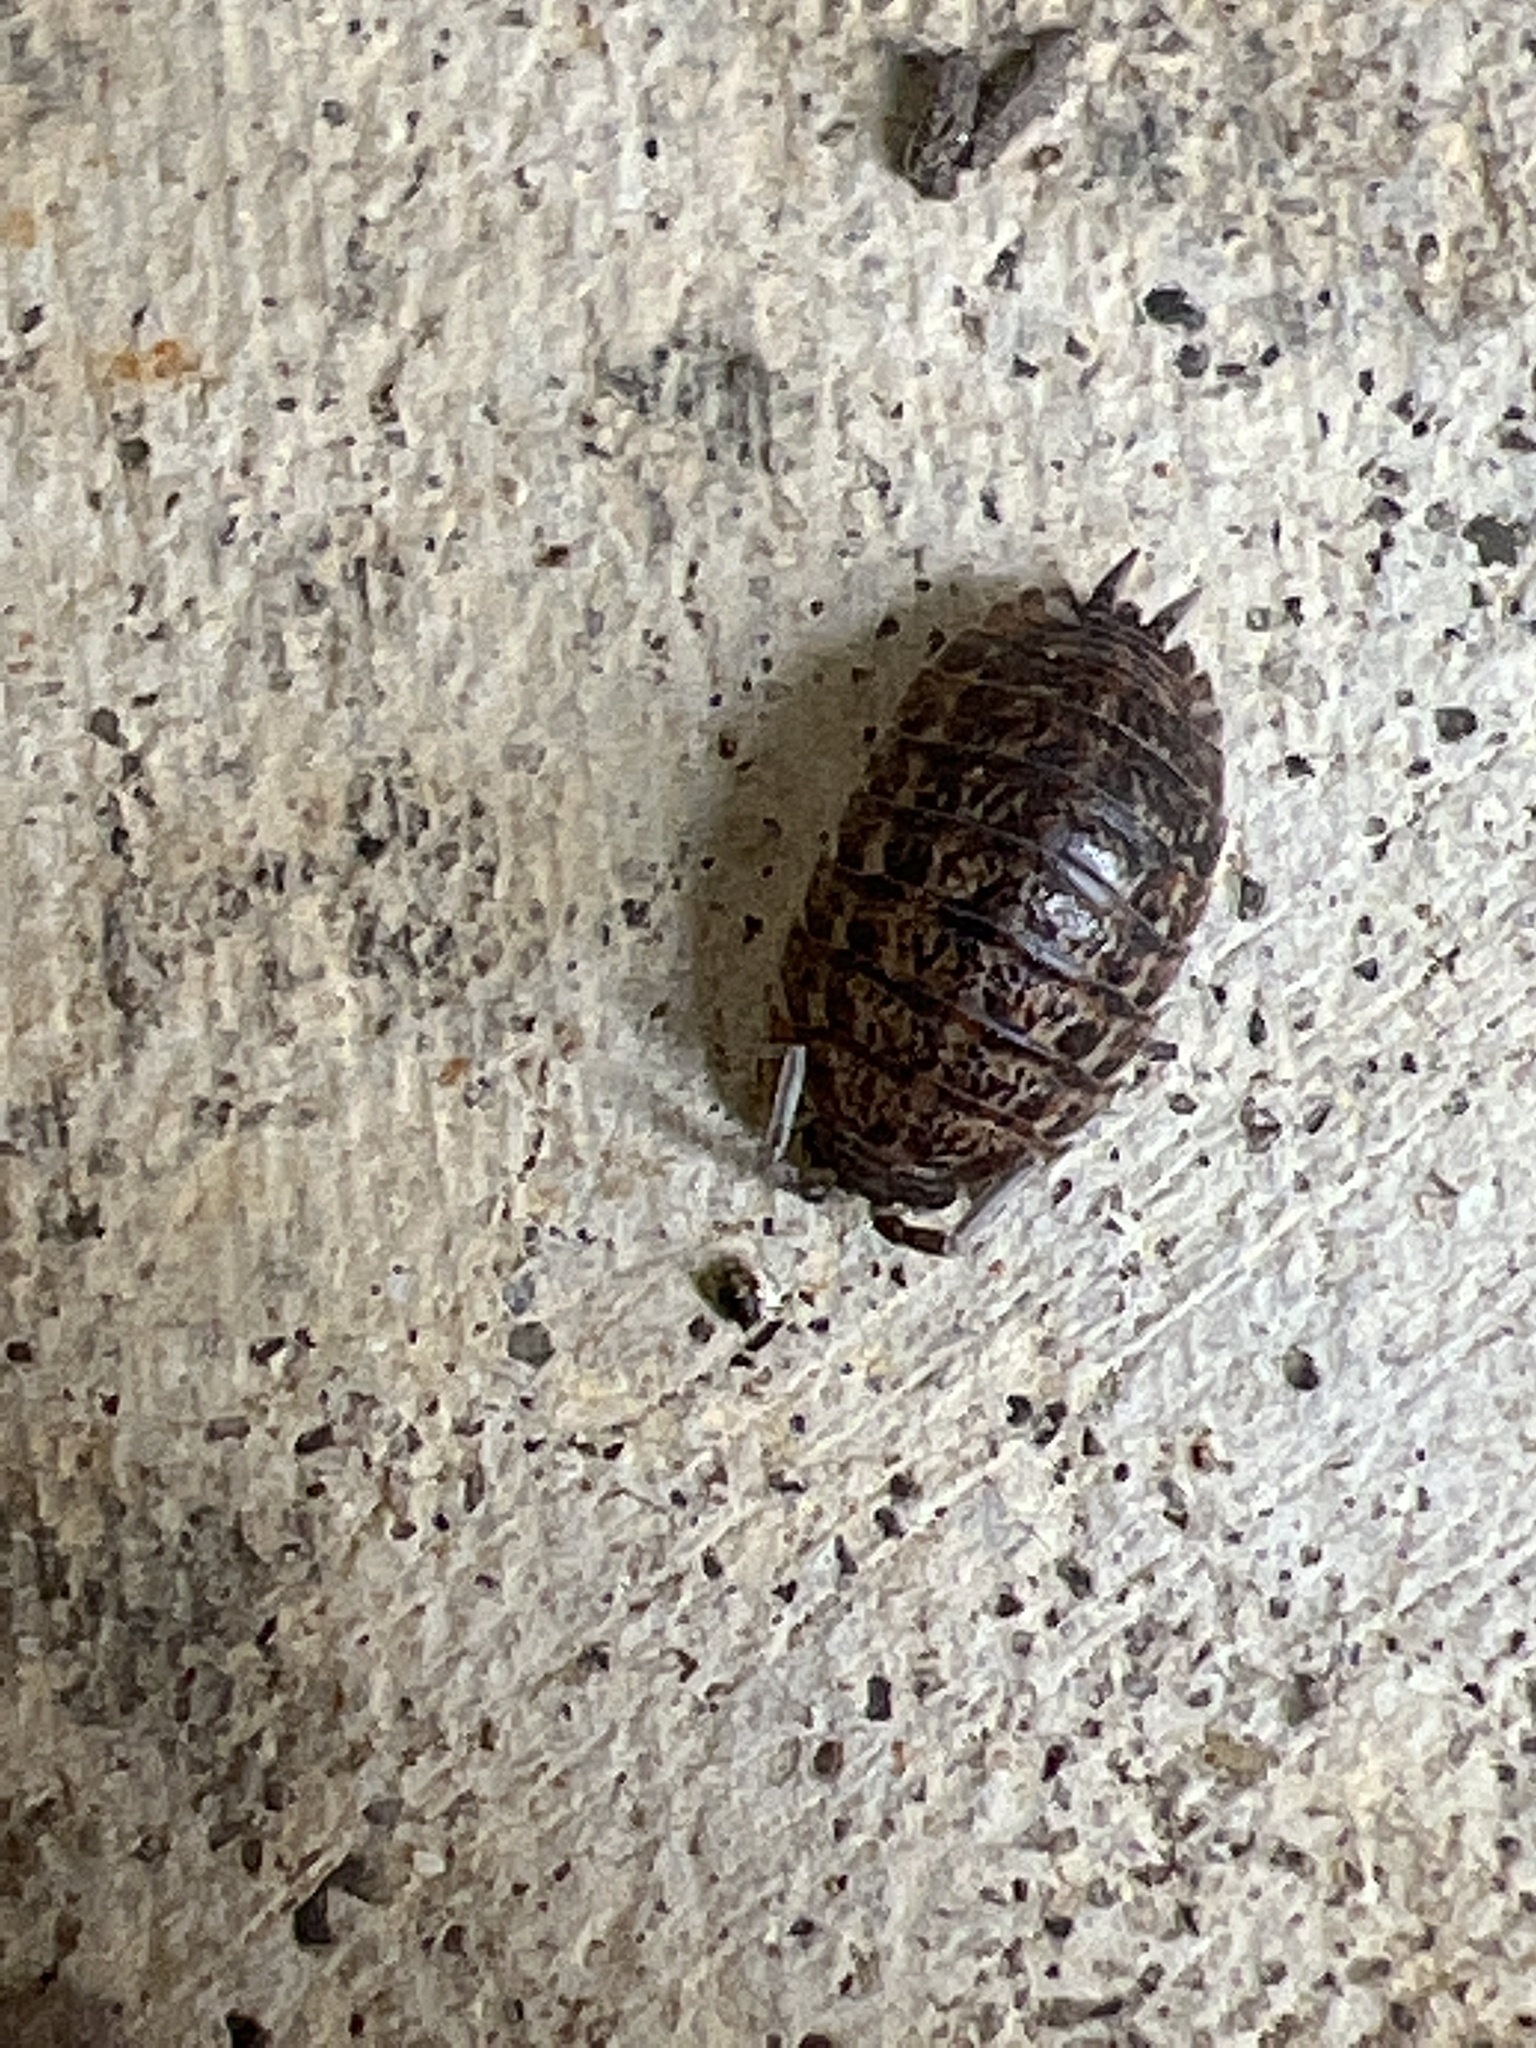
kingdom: Animalia
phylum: Arthropoda
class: Malacostraca
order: Isopoda
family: Trachelipodidae
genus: Trachelipus
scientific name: Trachelipus rathkii
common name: Isopod
